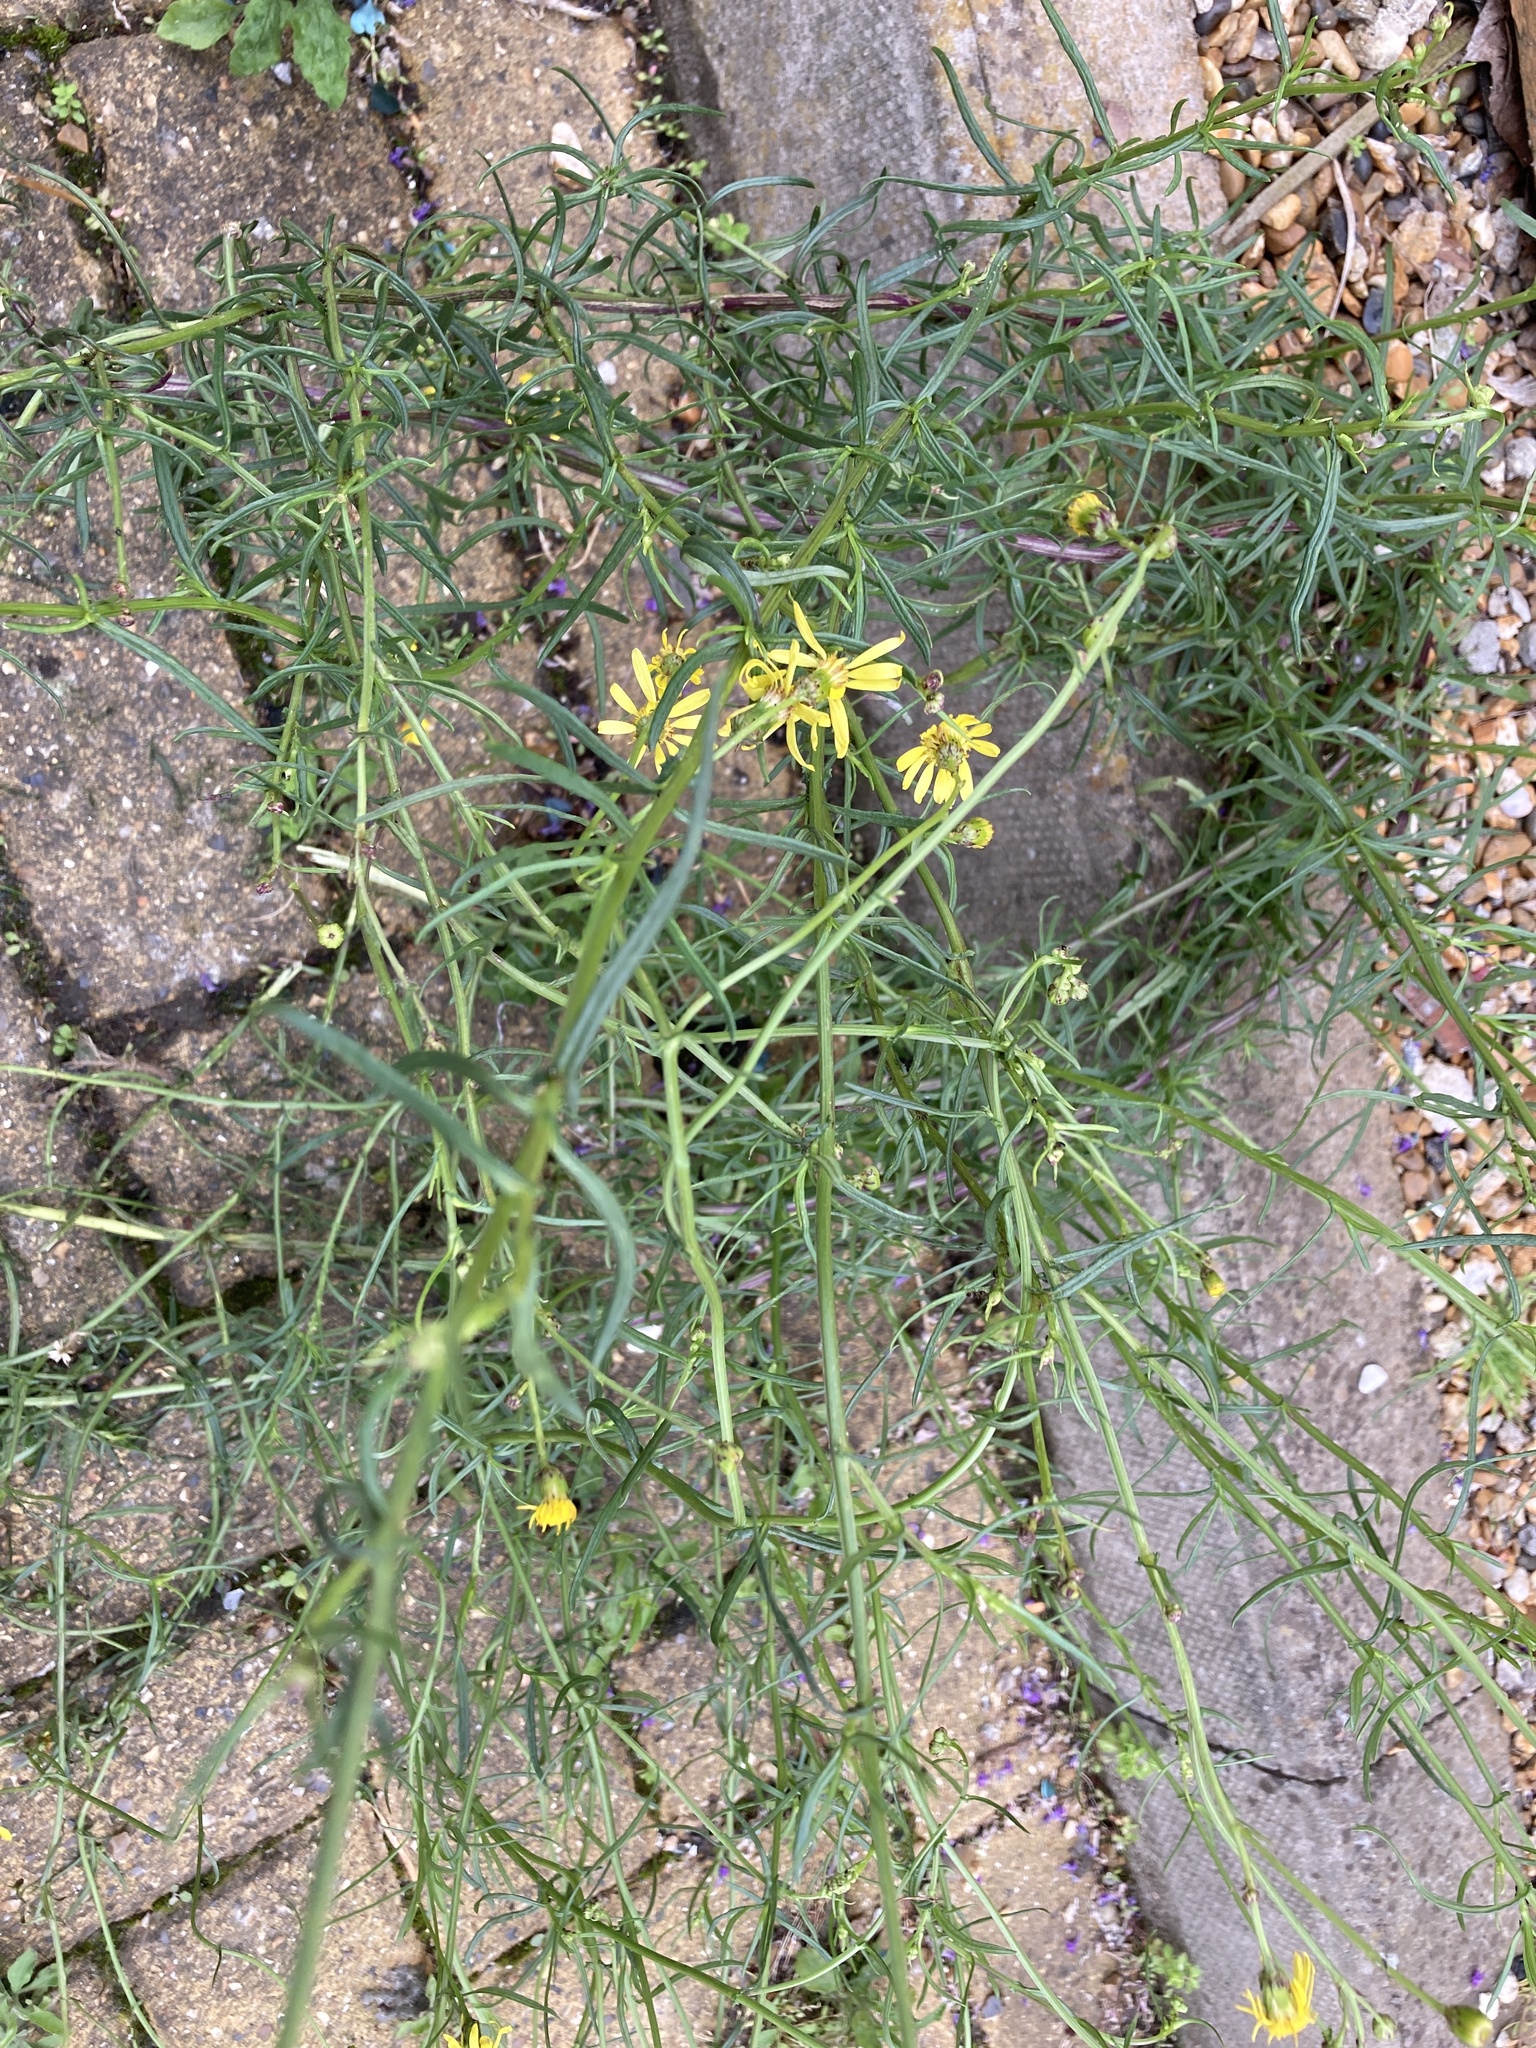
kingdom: Plantae
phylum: Tracheophyta
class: Magnoliopsida
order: Asterales
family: Asteraceae
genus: Senecio
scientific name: Senecio inaequidens
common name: Narrow-leaved ragwort
